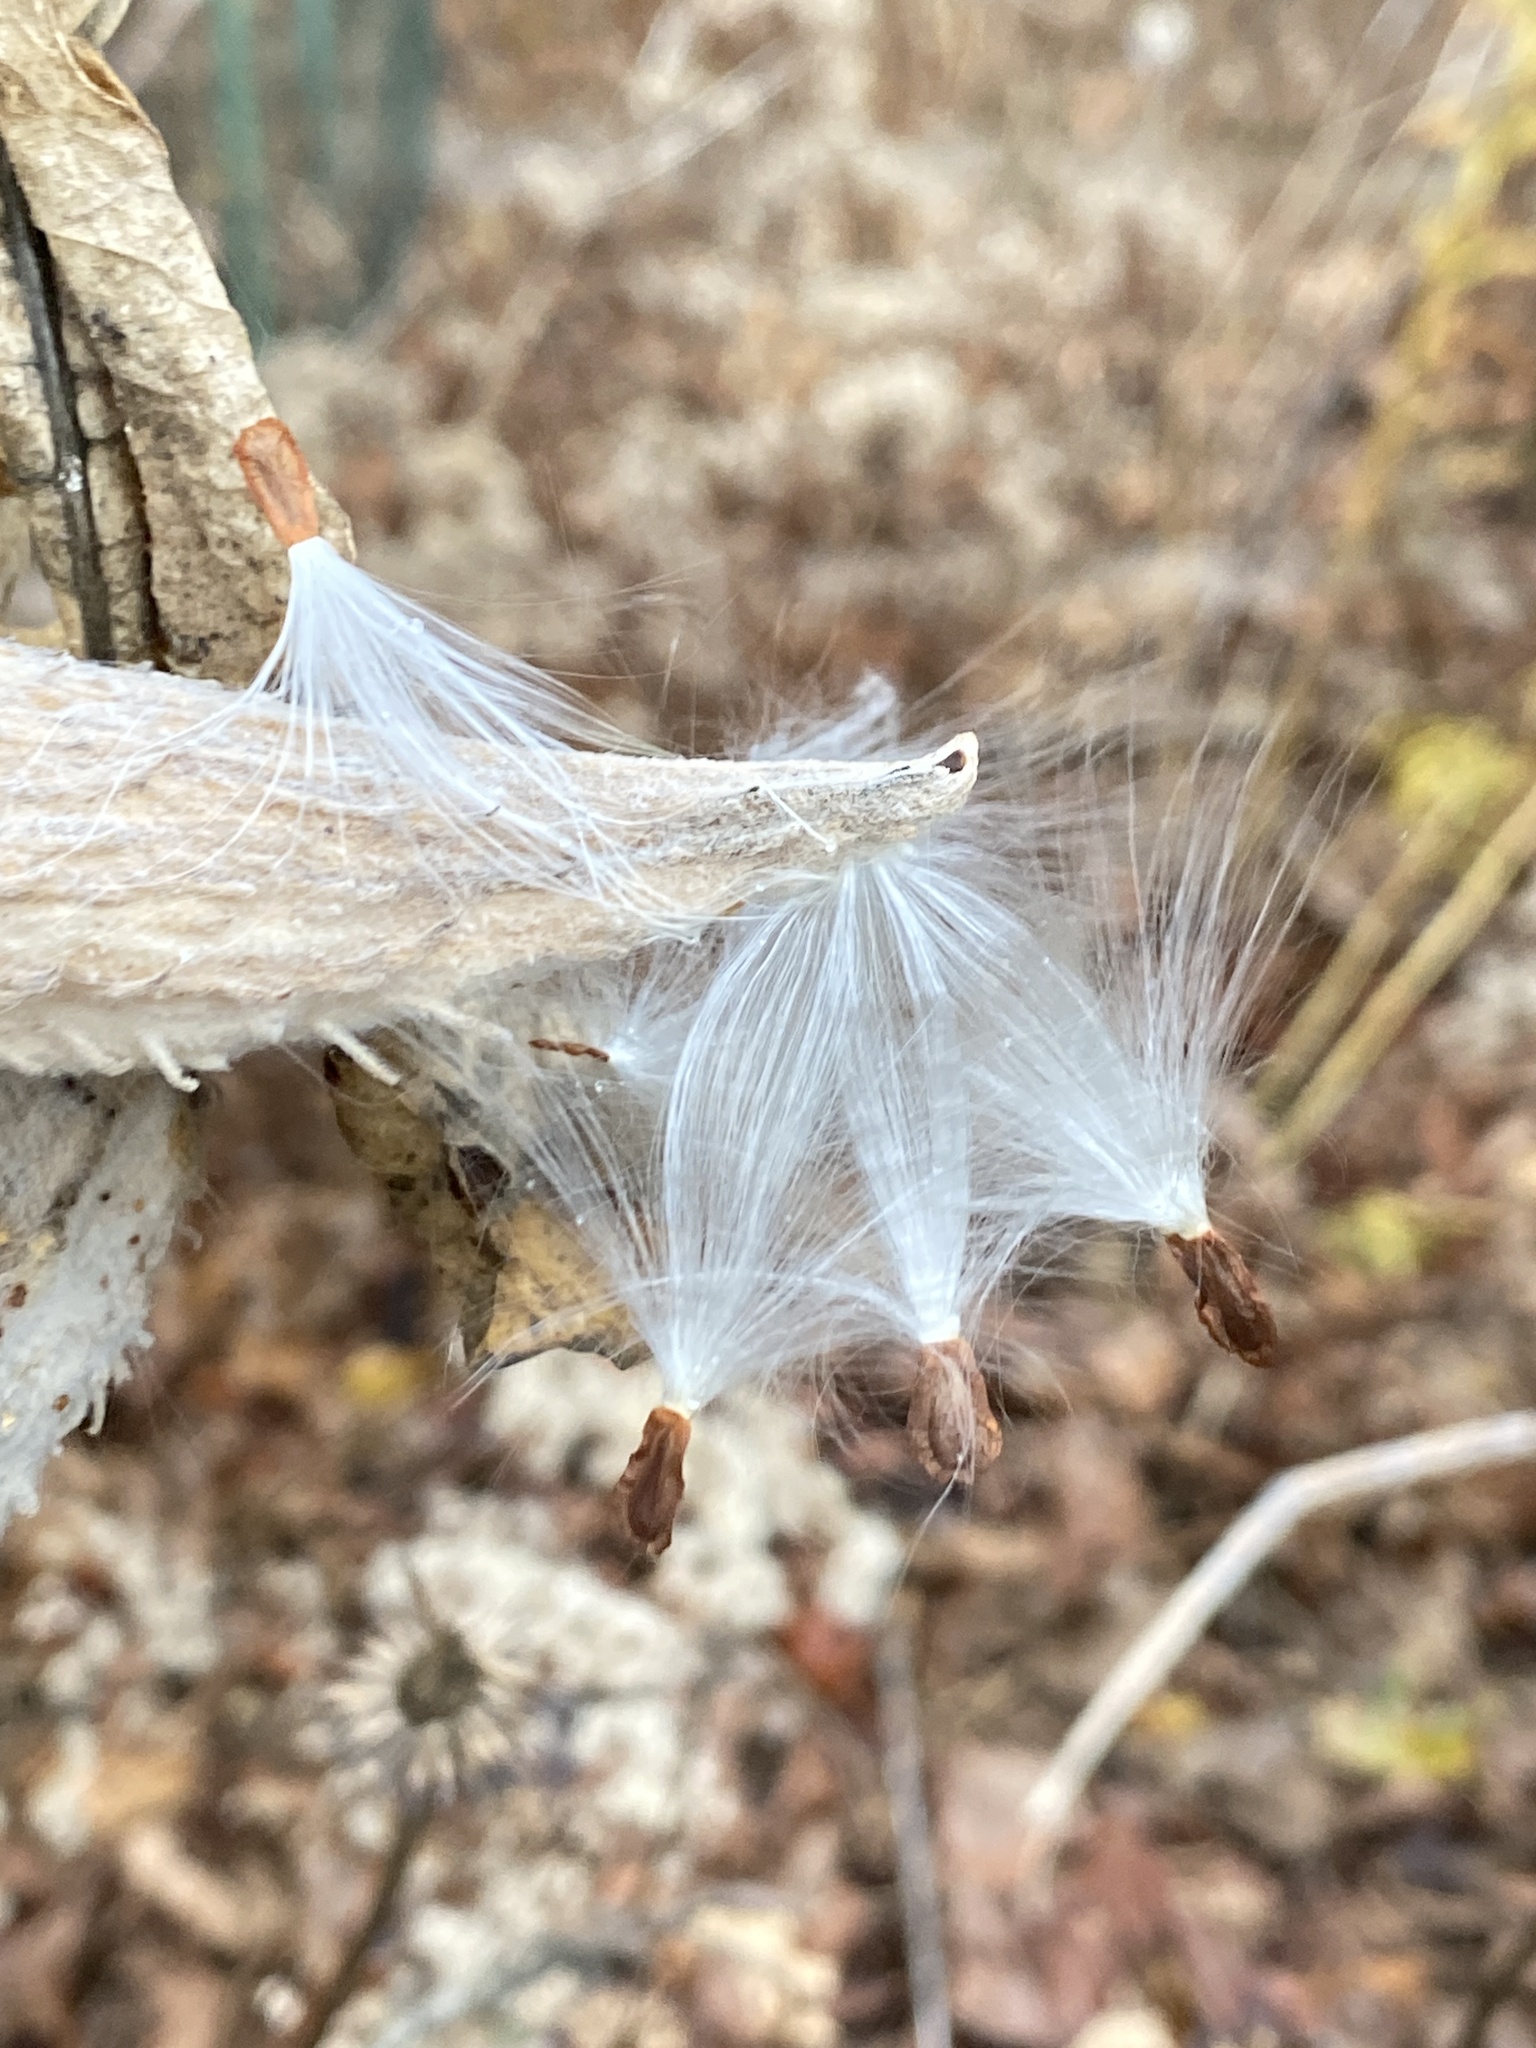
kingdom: Plantae
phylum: Tracheophyta
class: Magnoliopsida
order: Gentianales
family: Apocynaceae
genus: Asclepias
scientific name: Asclepias syriaca
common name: Common milkweed
